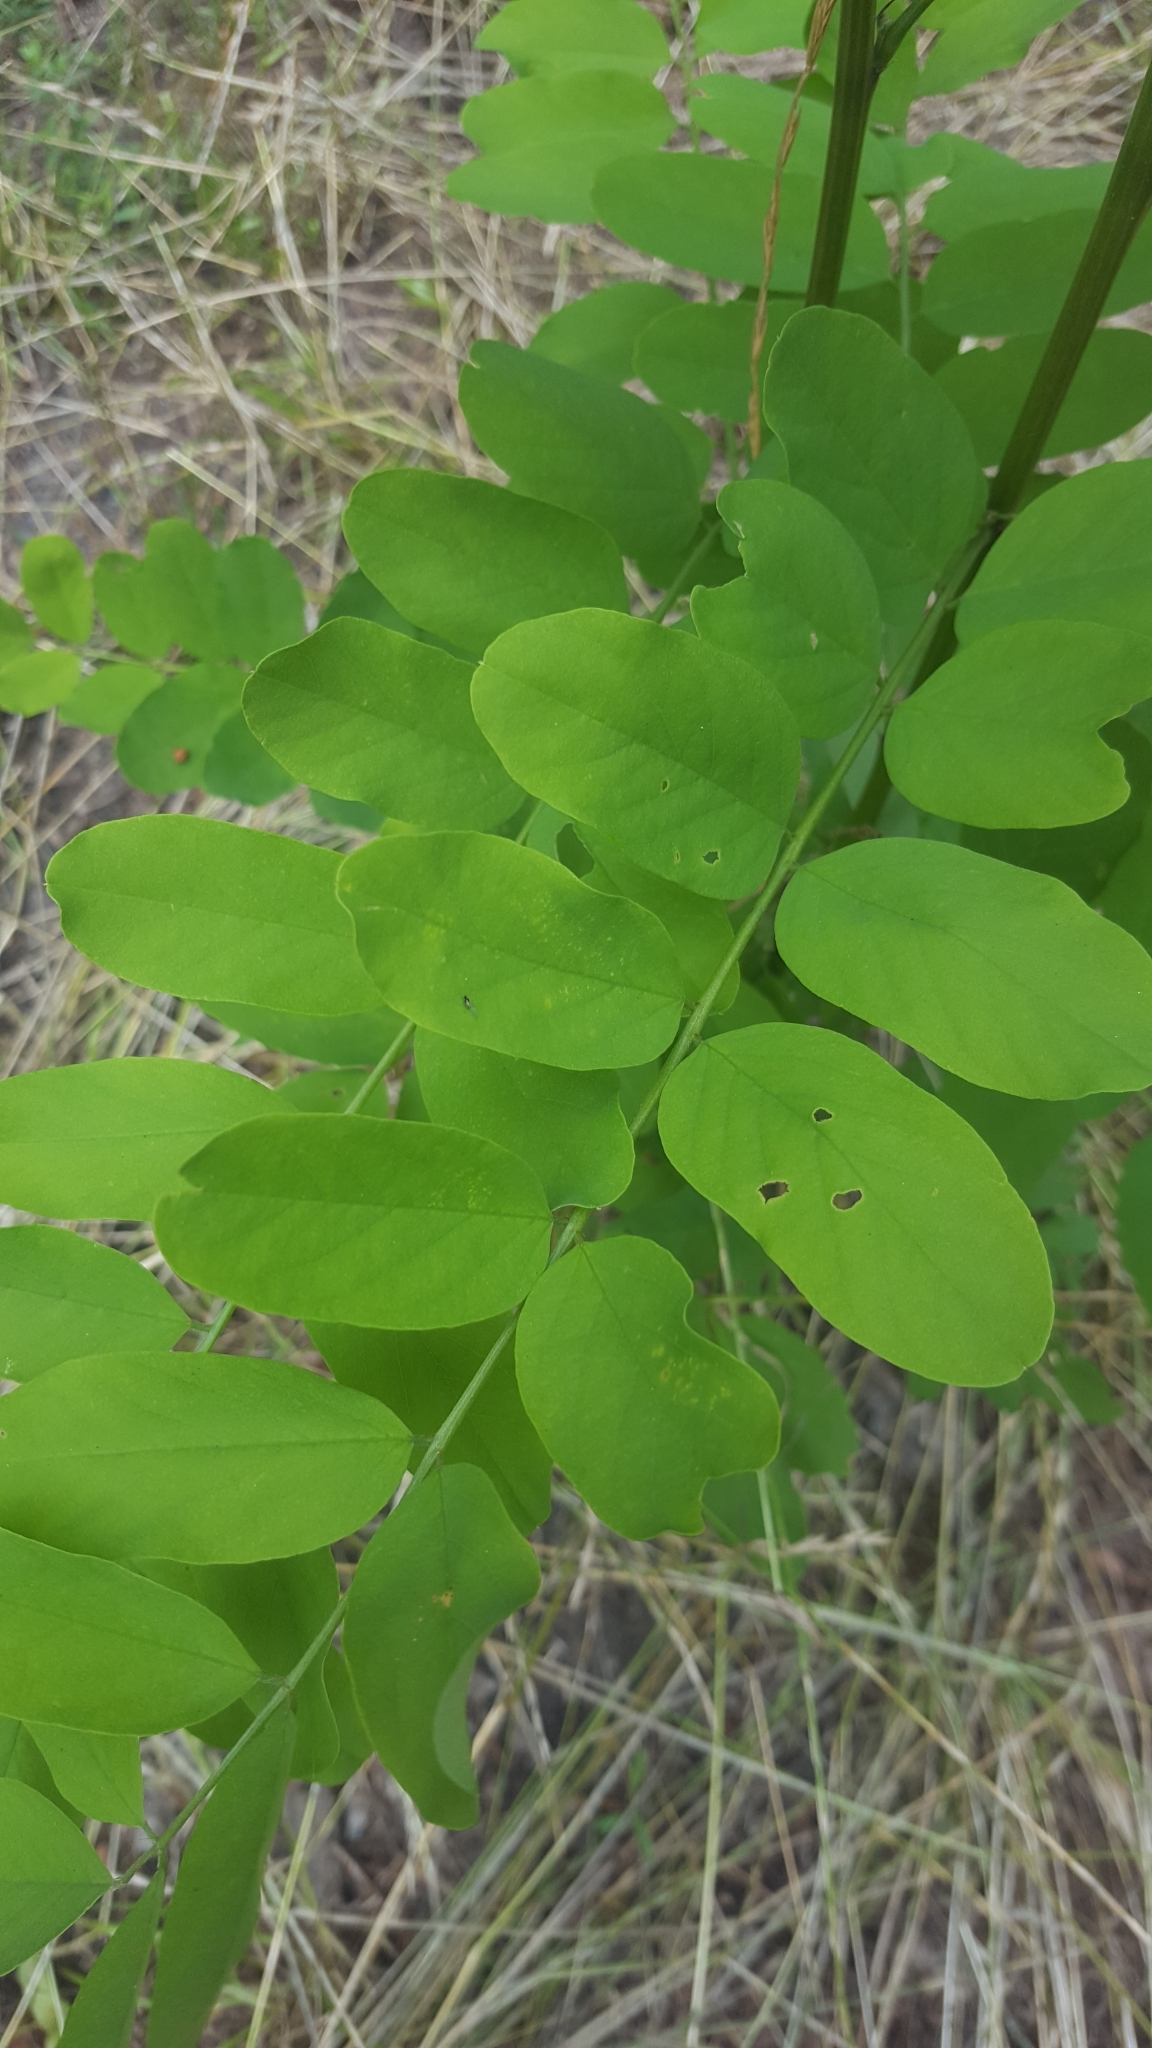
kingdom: Plantae
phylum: Tracheophyta
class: Magnoliopsida
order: Fabales
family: Fabaceae
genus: Robinia
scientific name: Robinia pseudoacacia
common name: Black locust
